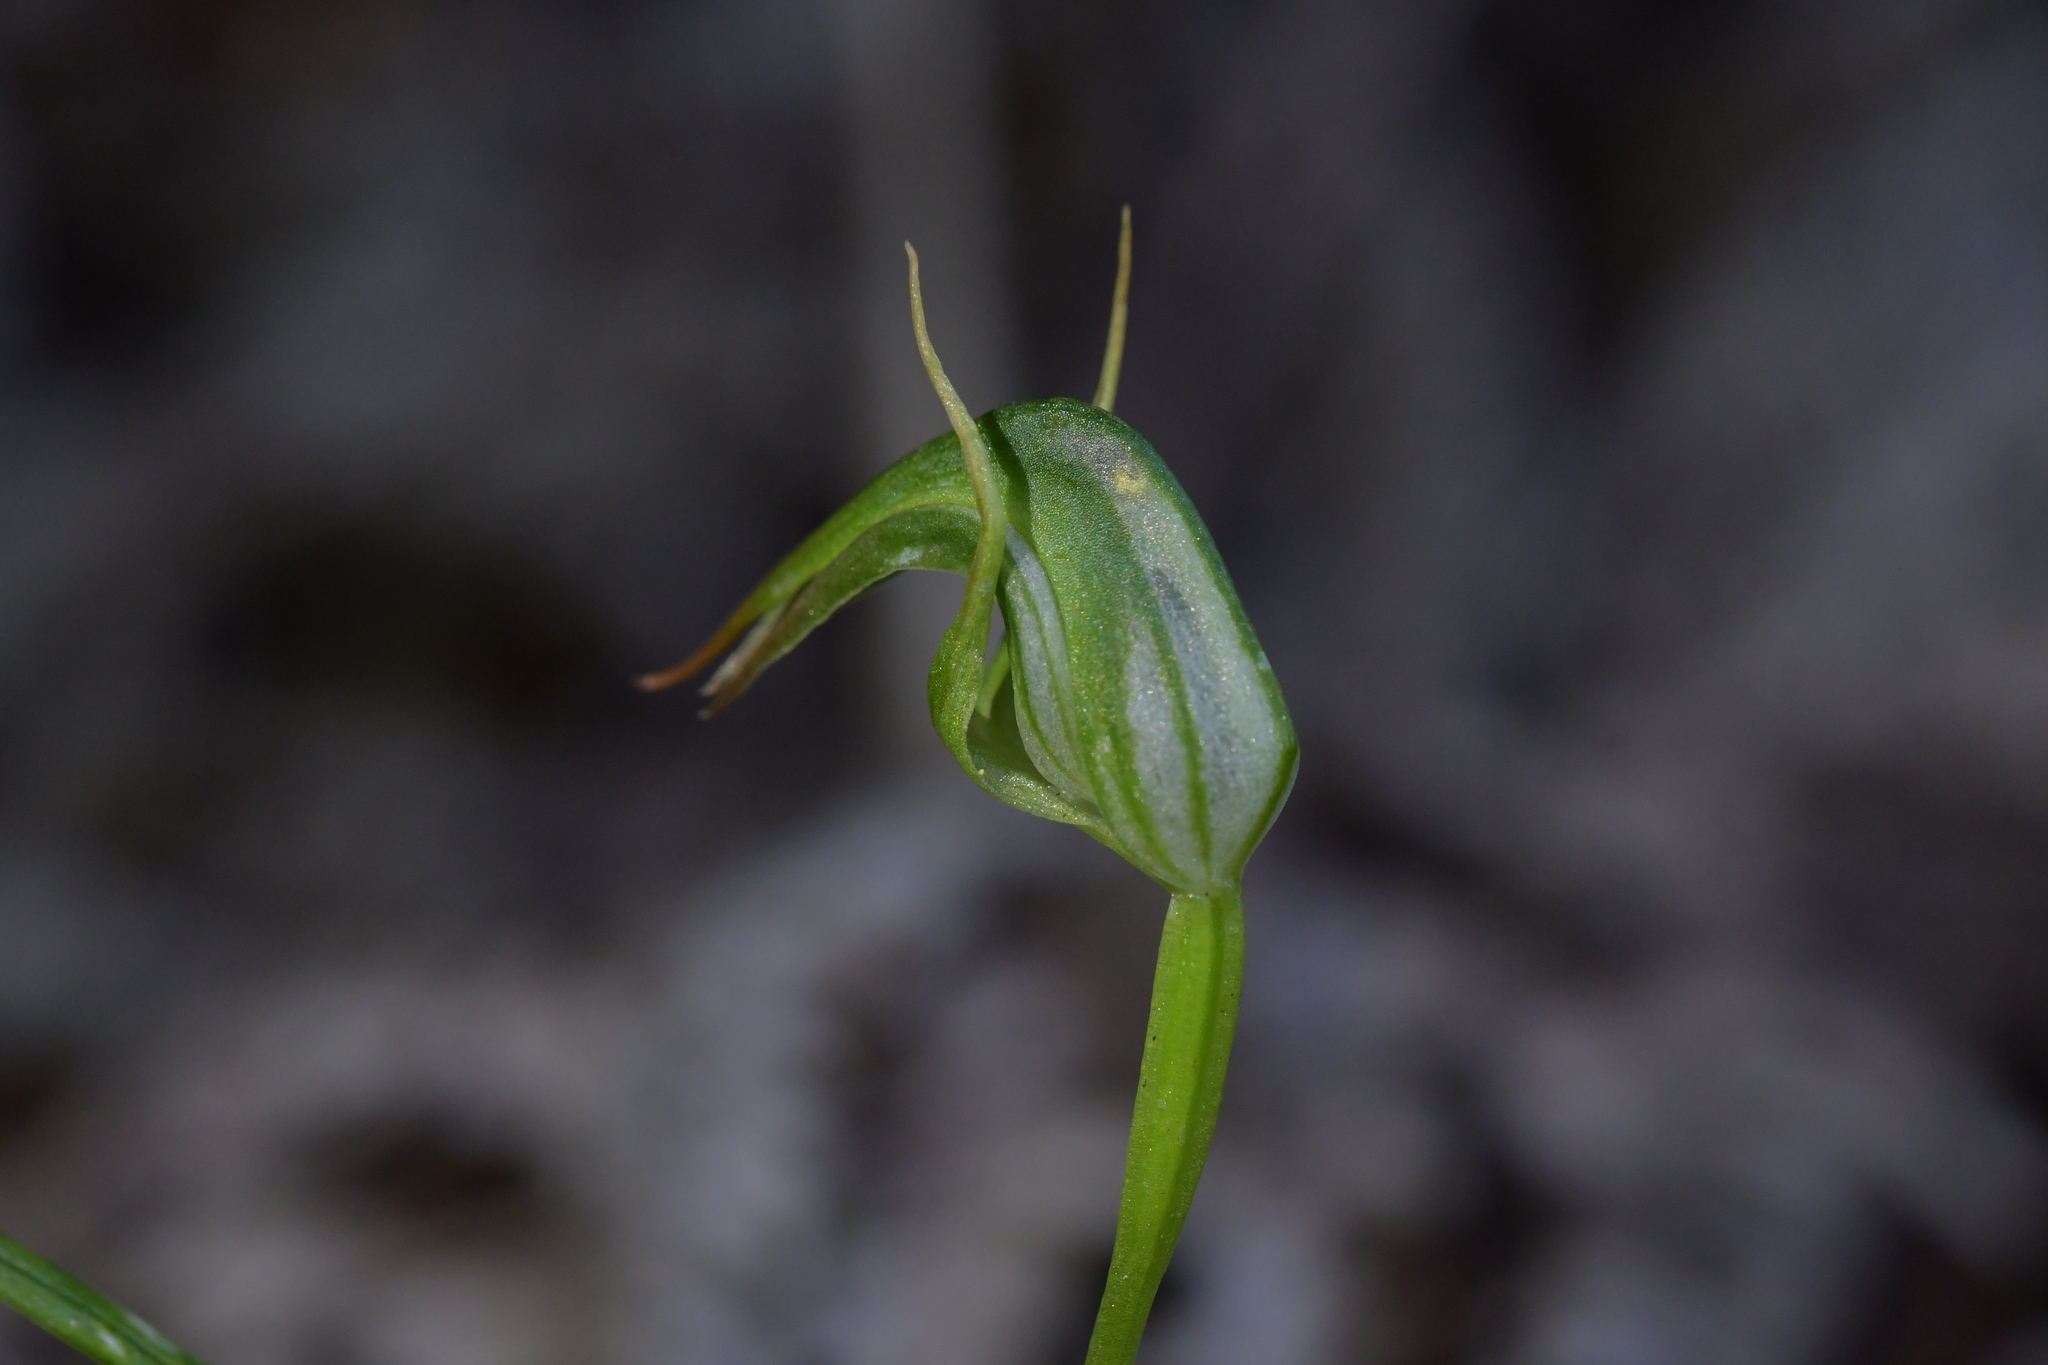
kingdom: Plantae
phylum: Tracheophyta
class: Liliopsida
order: Asparagales
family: Orchidaceae
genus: Pterostylis
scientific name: Pterostylis graminea
